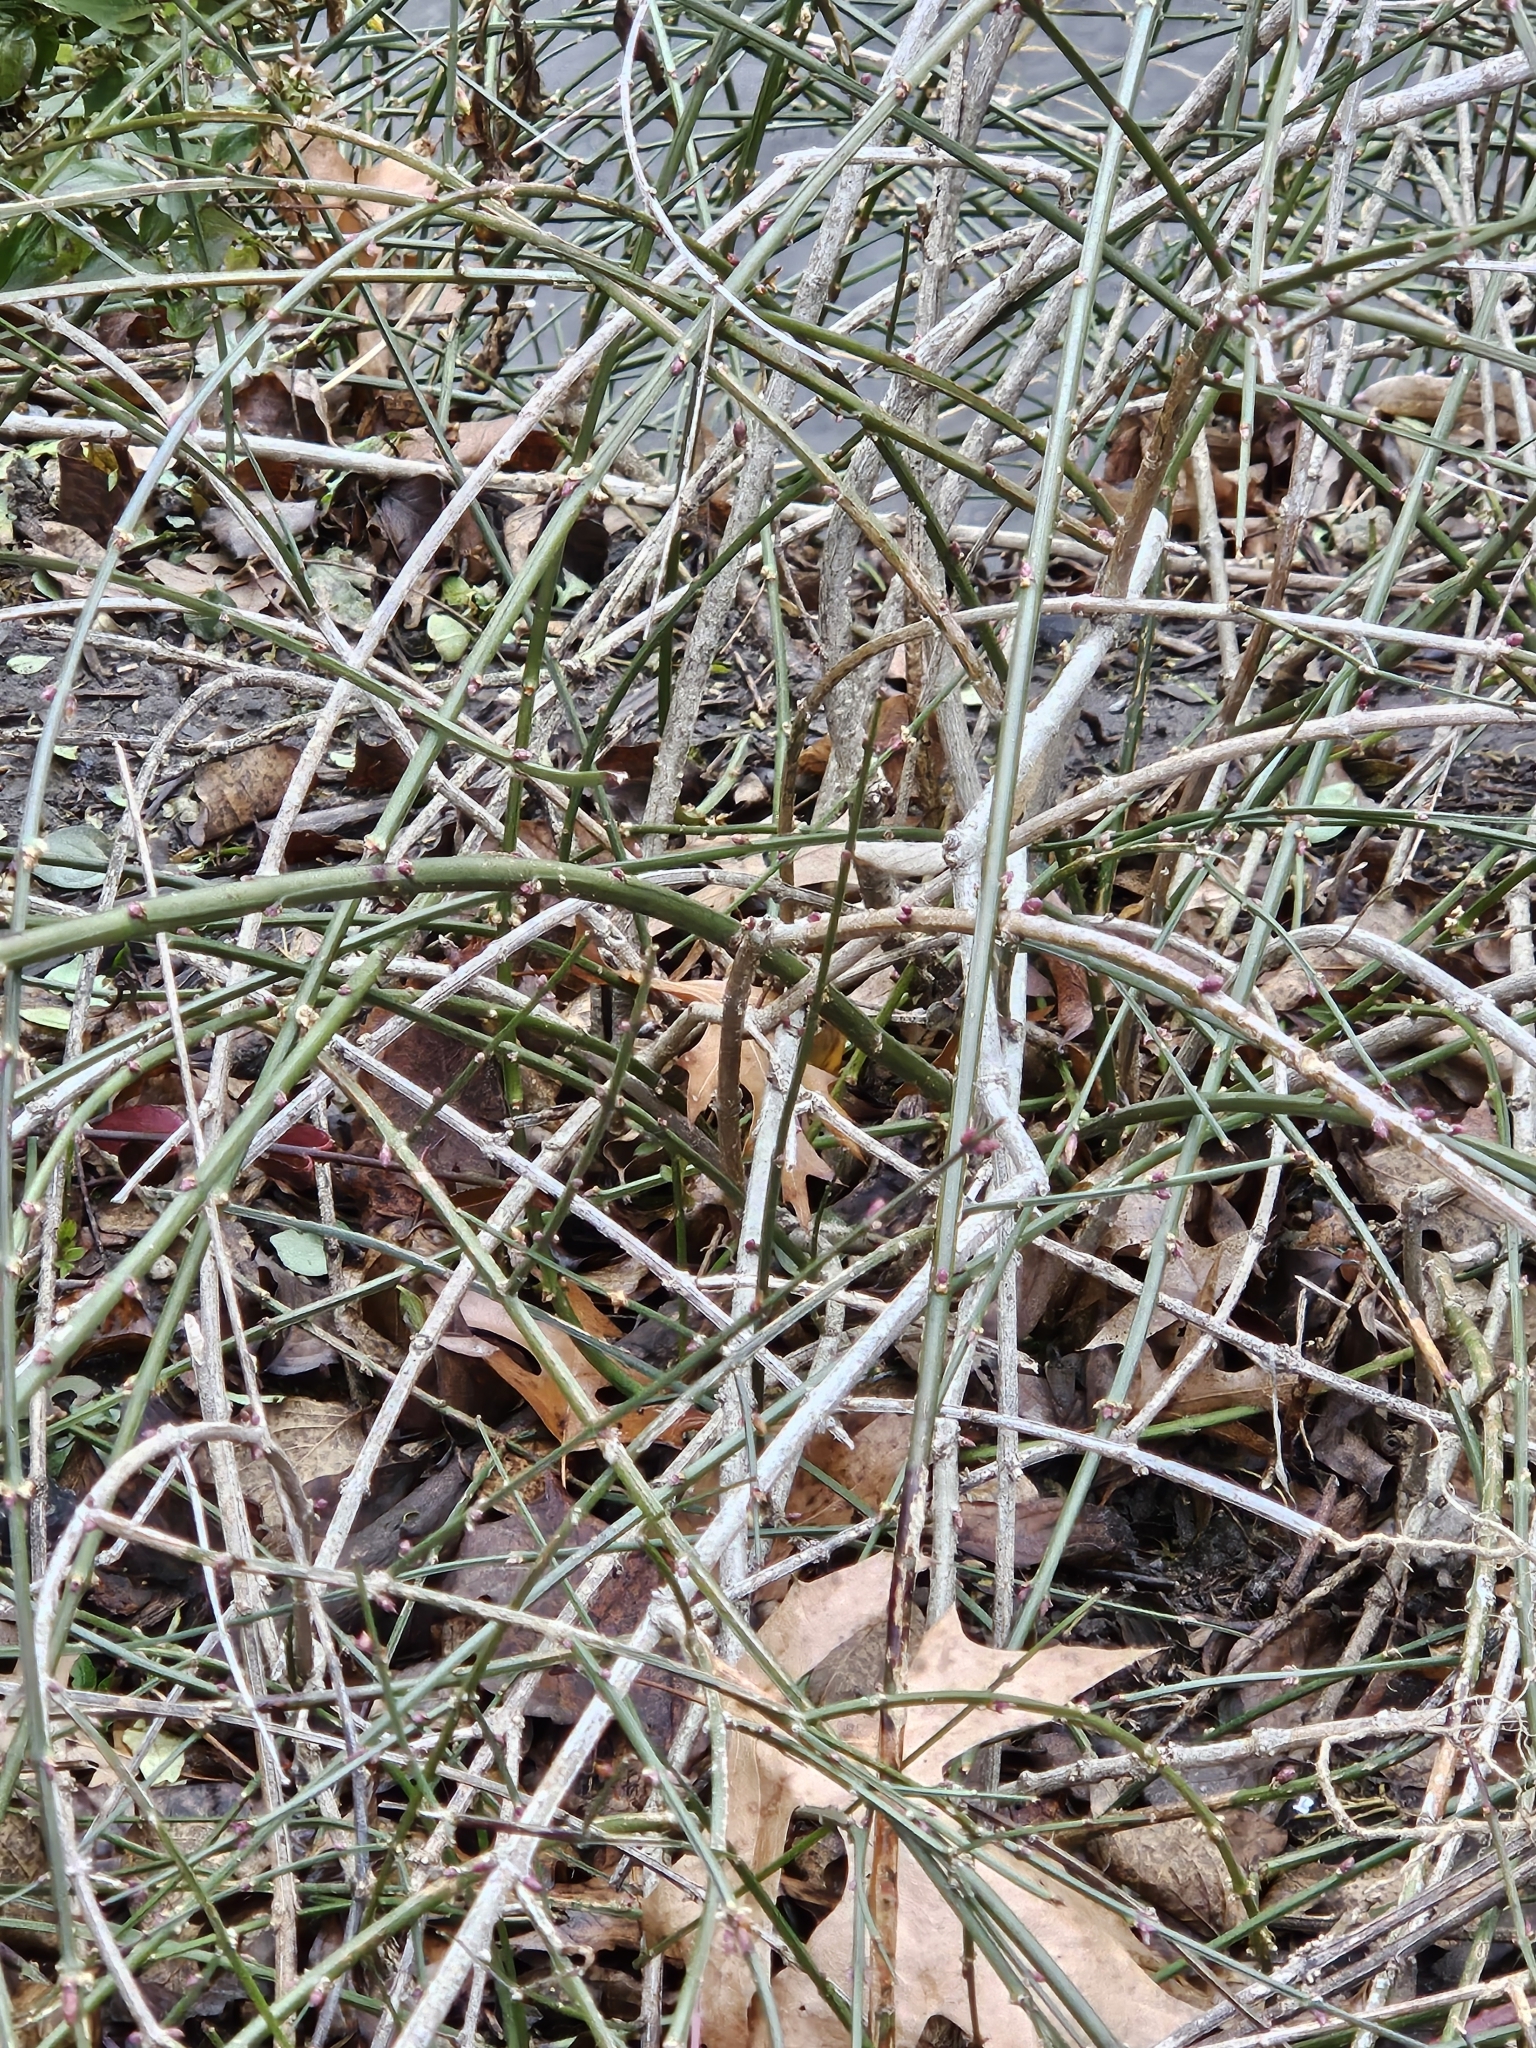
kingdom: Plantae
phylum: Tracheophyta
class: Magnoliopsida
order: Lamiales
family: Oleaceae
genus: Jasminum
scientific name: Jasminum nudiflorum
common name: Winter jasmine
